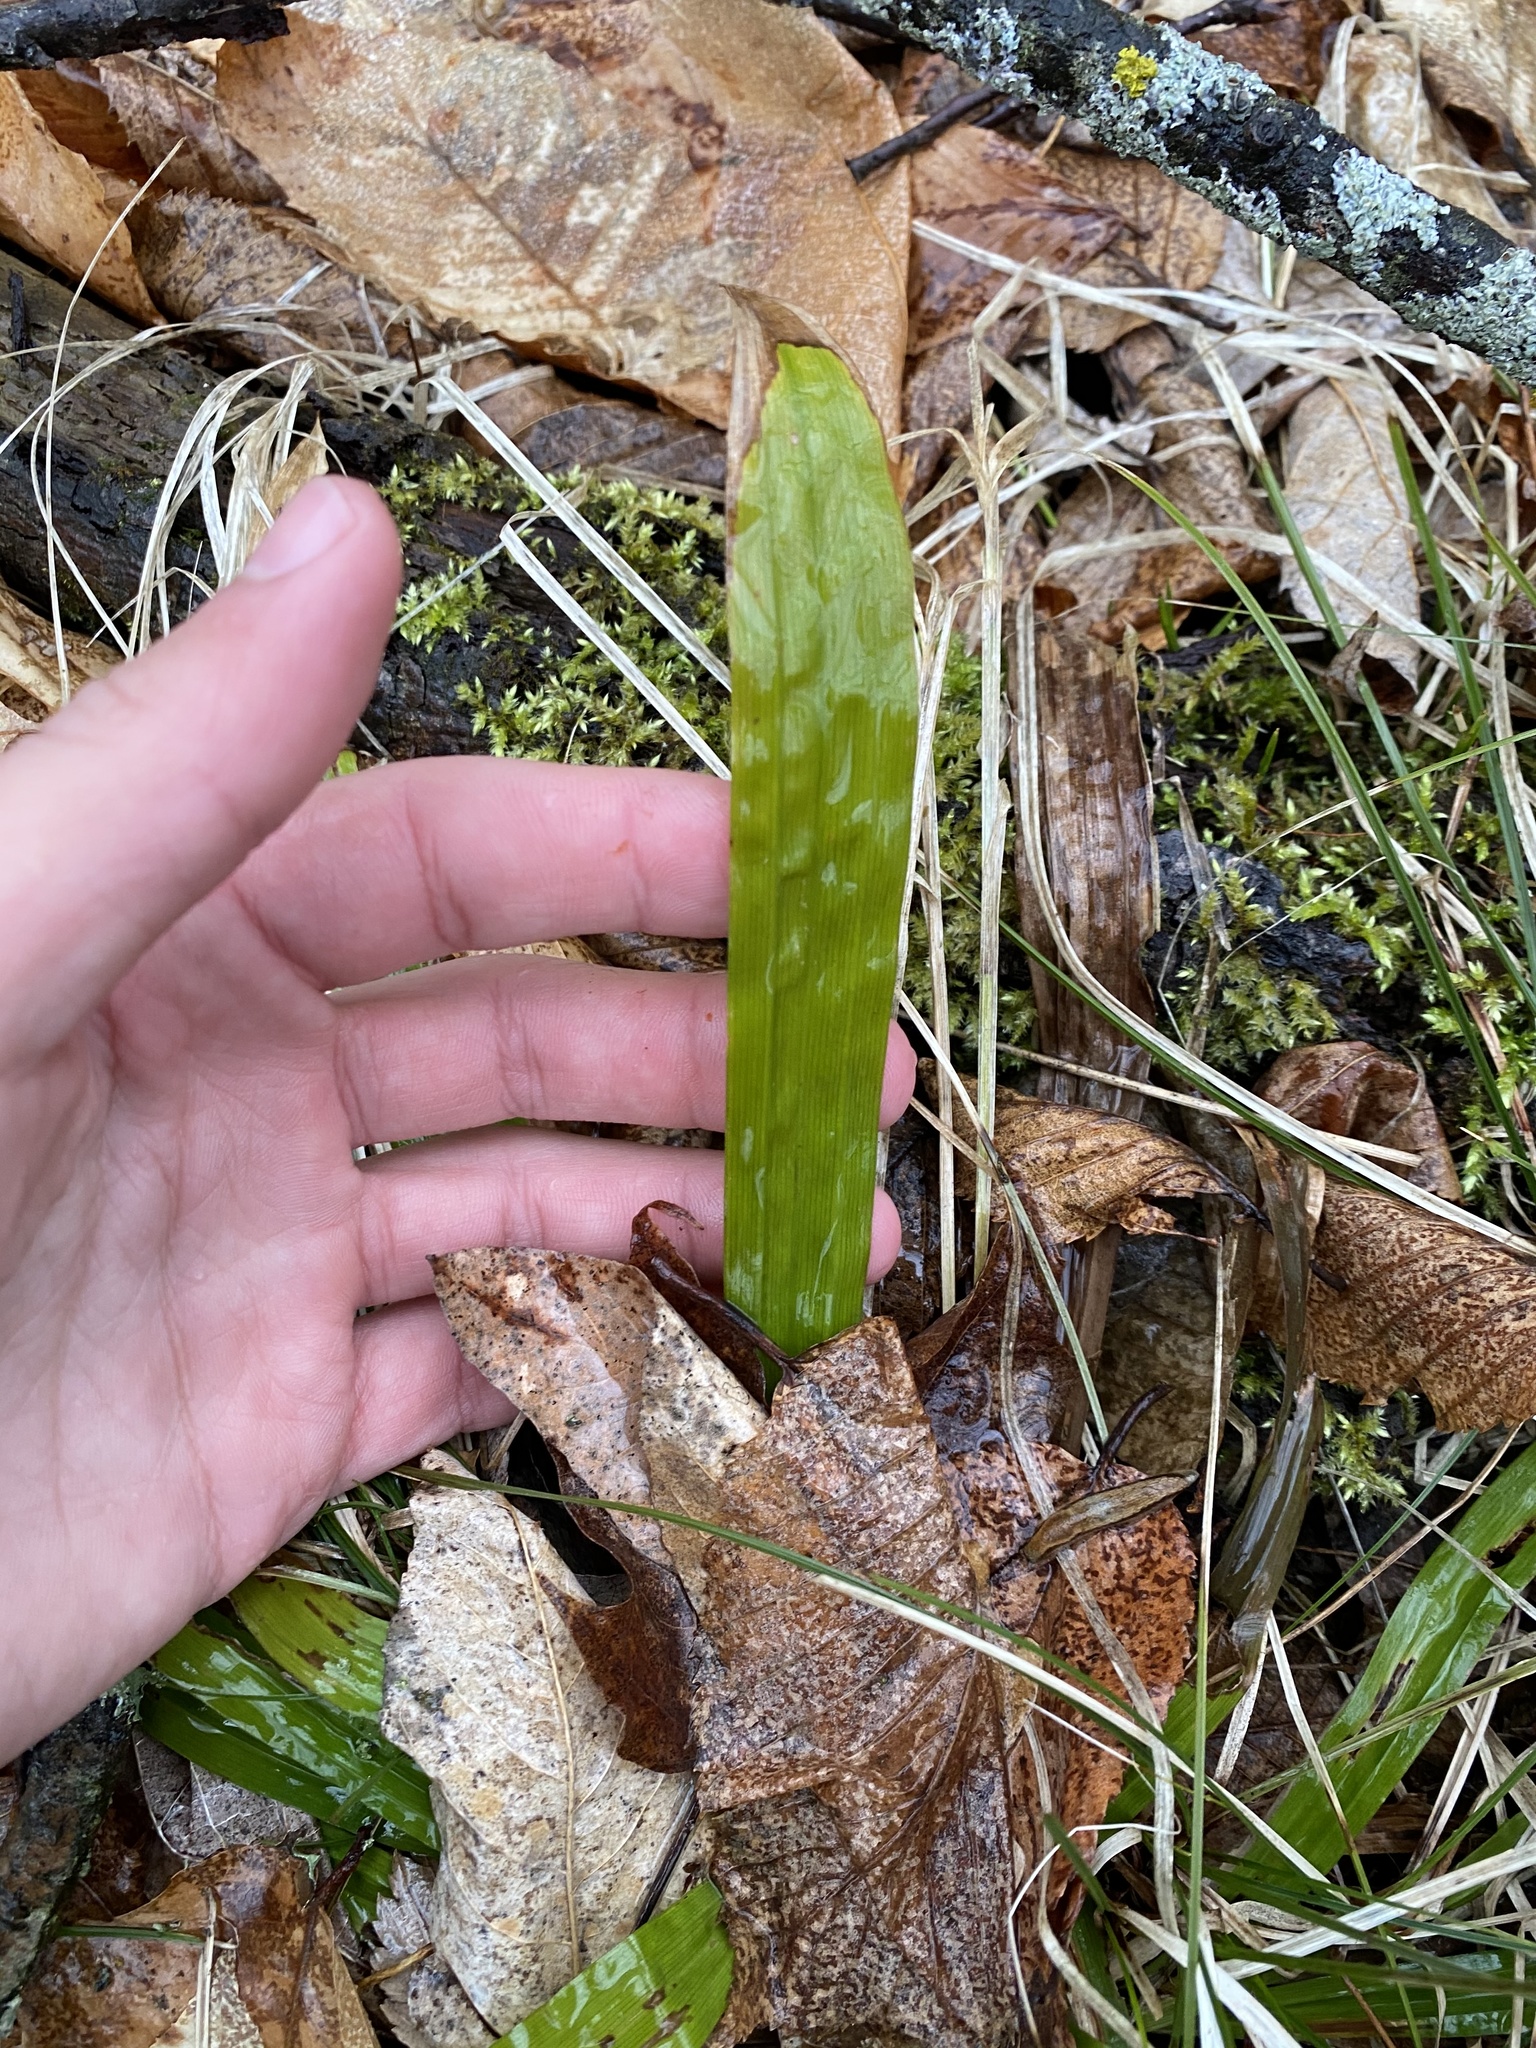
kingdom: Plantae
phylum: Tracheophyta
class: Liliopsida
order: Poales
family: Cyperaceae
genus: Carex
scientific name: Carex plantaginea
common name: Plantain-leaved sedge
